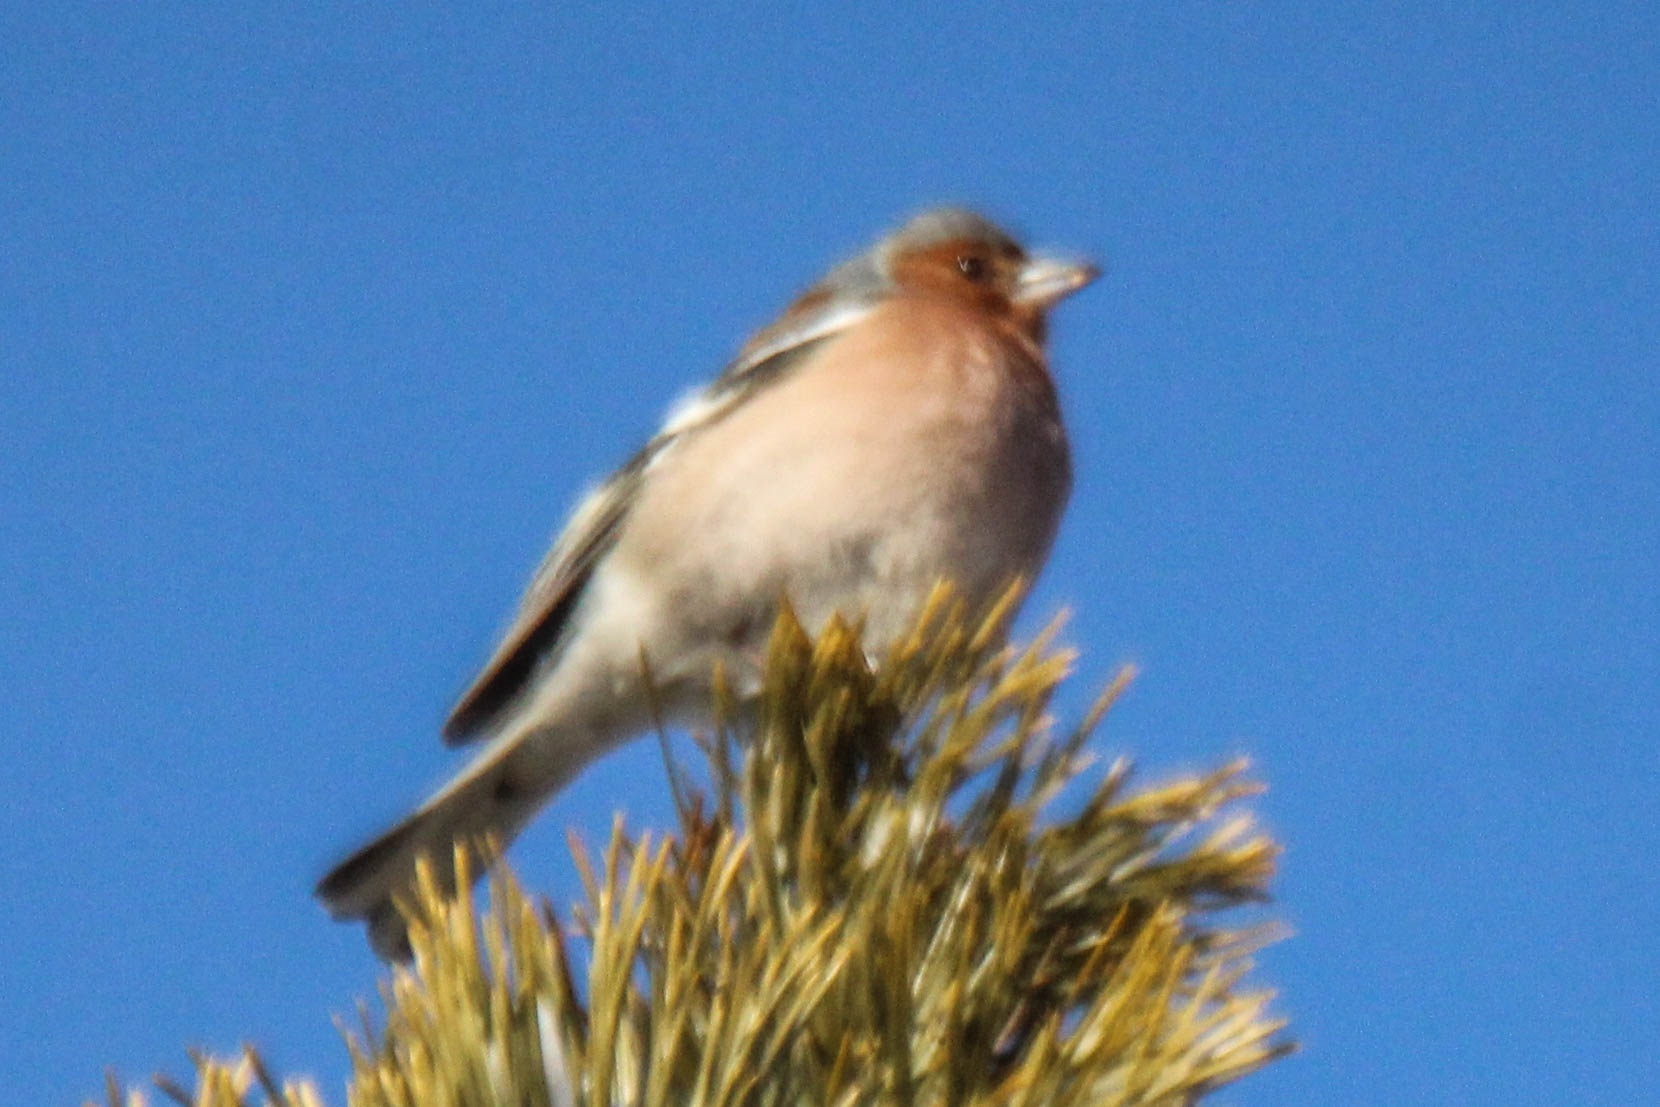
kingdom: Animalia
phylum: Chordata
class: Aves
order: Passeriformes
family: Fringillidae
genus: Fringilla
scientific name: Fringilla coelebs
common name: Common chaffinch
